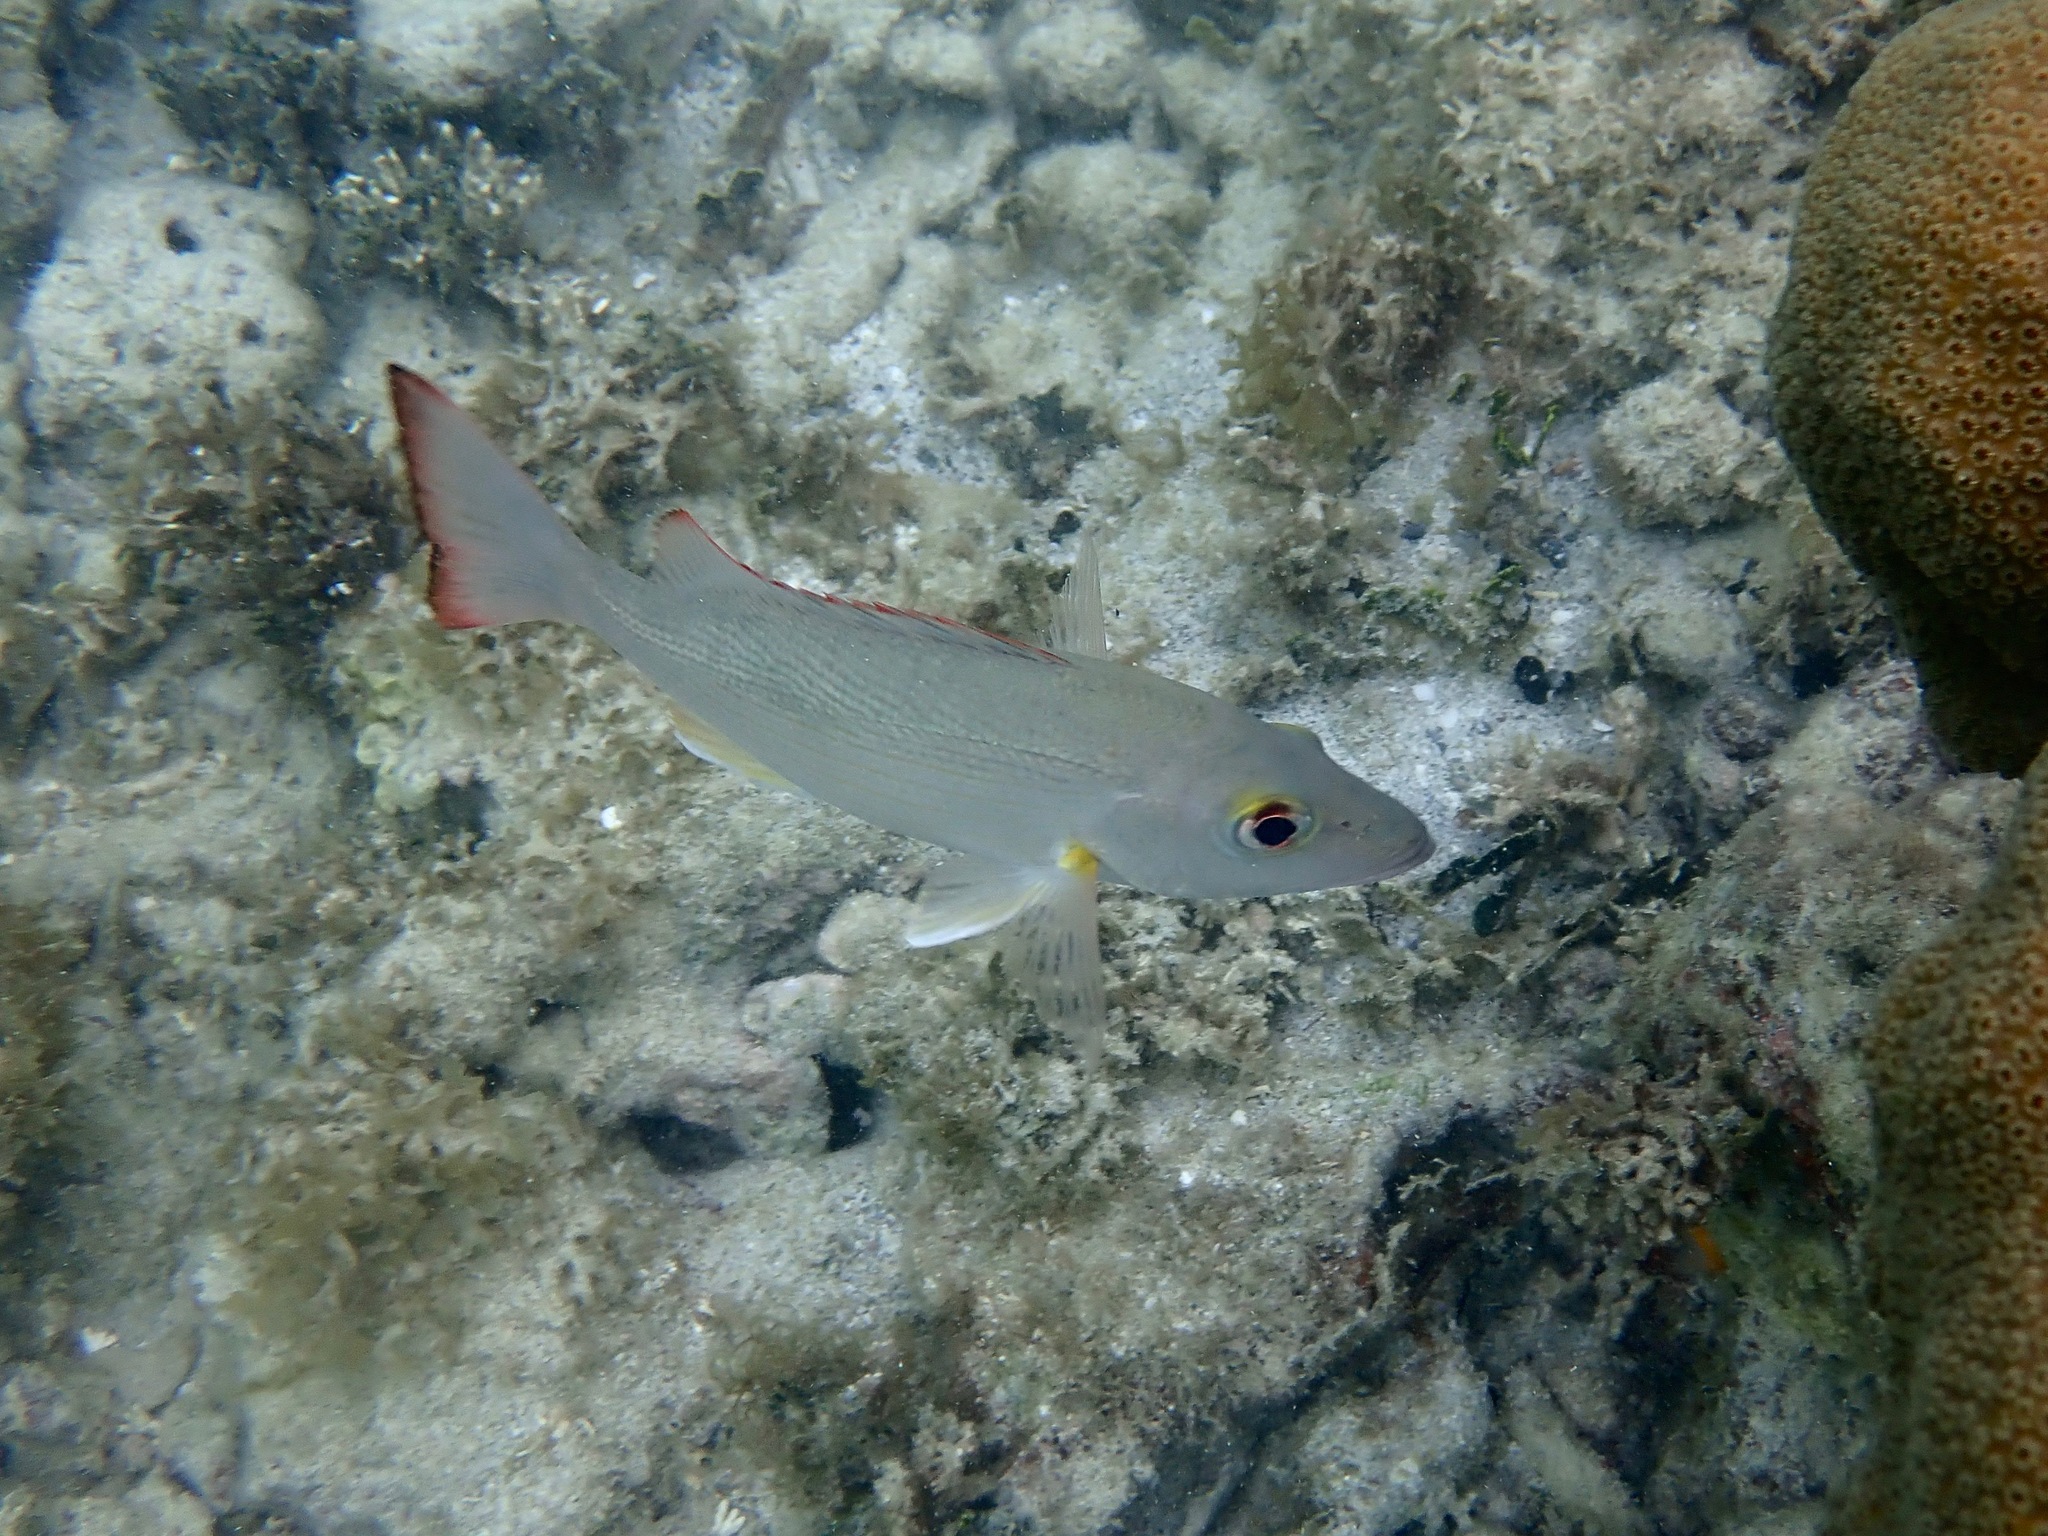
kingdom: Animalia
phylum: Chordata
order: Perciformes
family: Lutjanidae
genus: Lutjanus
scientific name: Lutjanus mahogoni
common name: Spot snapper
